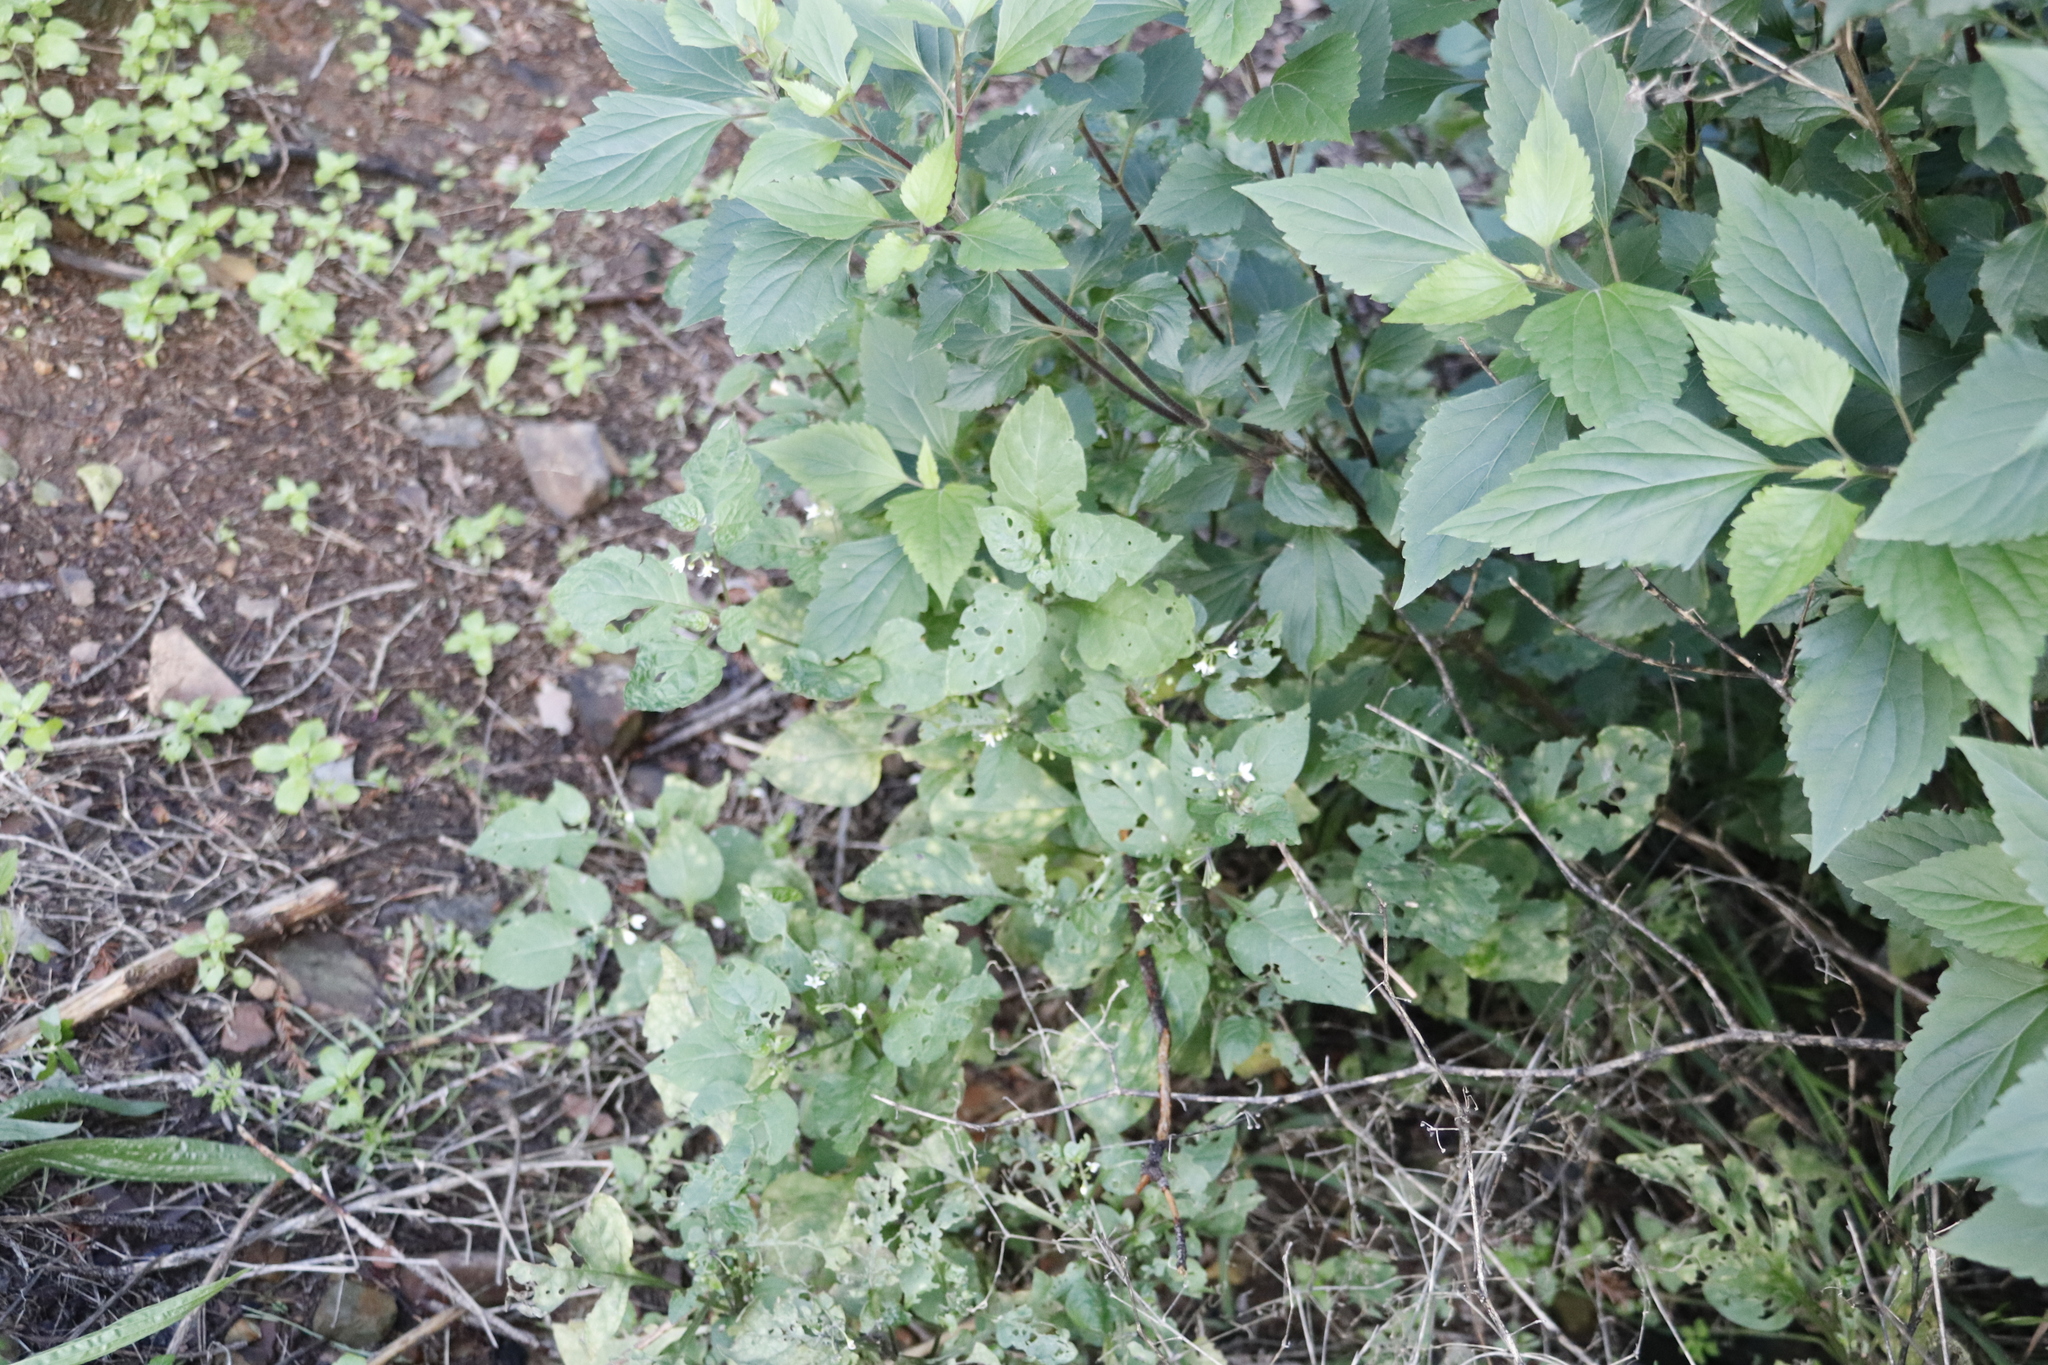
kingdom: Plantae
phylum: Tracheophyta
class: Magnoliopsida
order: Solanales
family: Solanaceae
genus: Solanum
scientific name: Solanum nigrum
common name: Black nightshade
